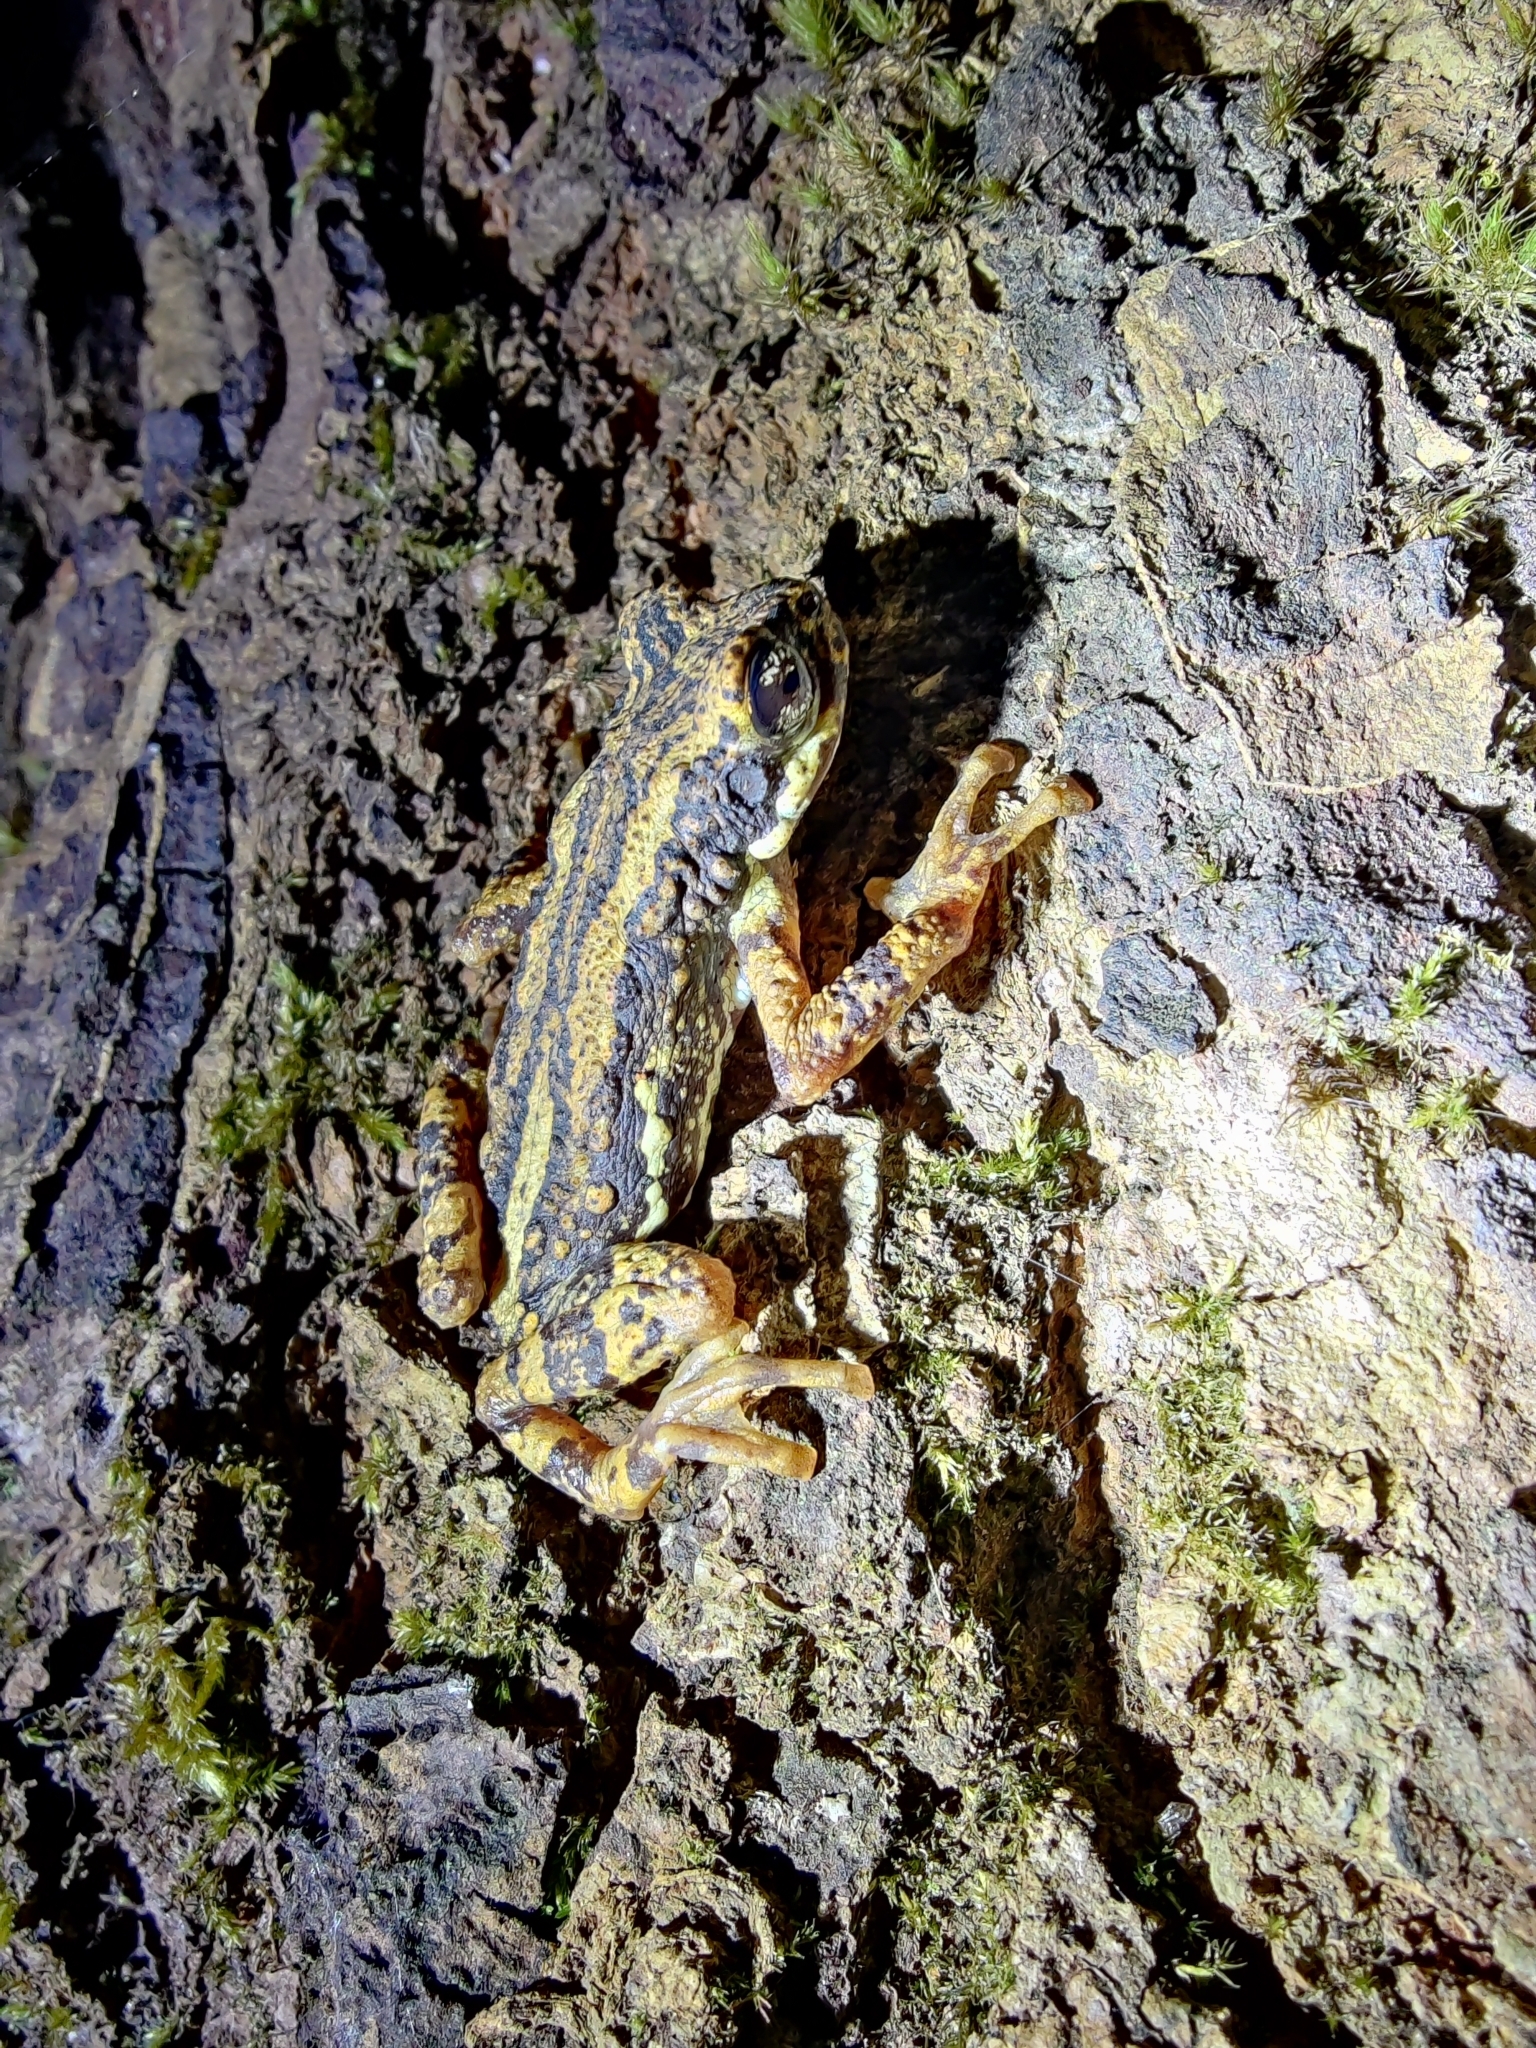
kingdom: Animalia
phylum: Chordata
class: Amphibia
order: Anura
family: Bufonidae
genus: Pedostibes
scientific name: Pedostibes tuberculosus
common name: Malabar tree toad
